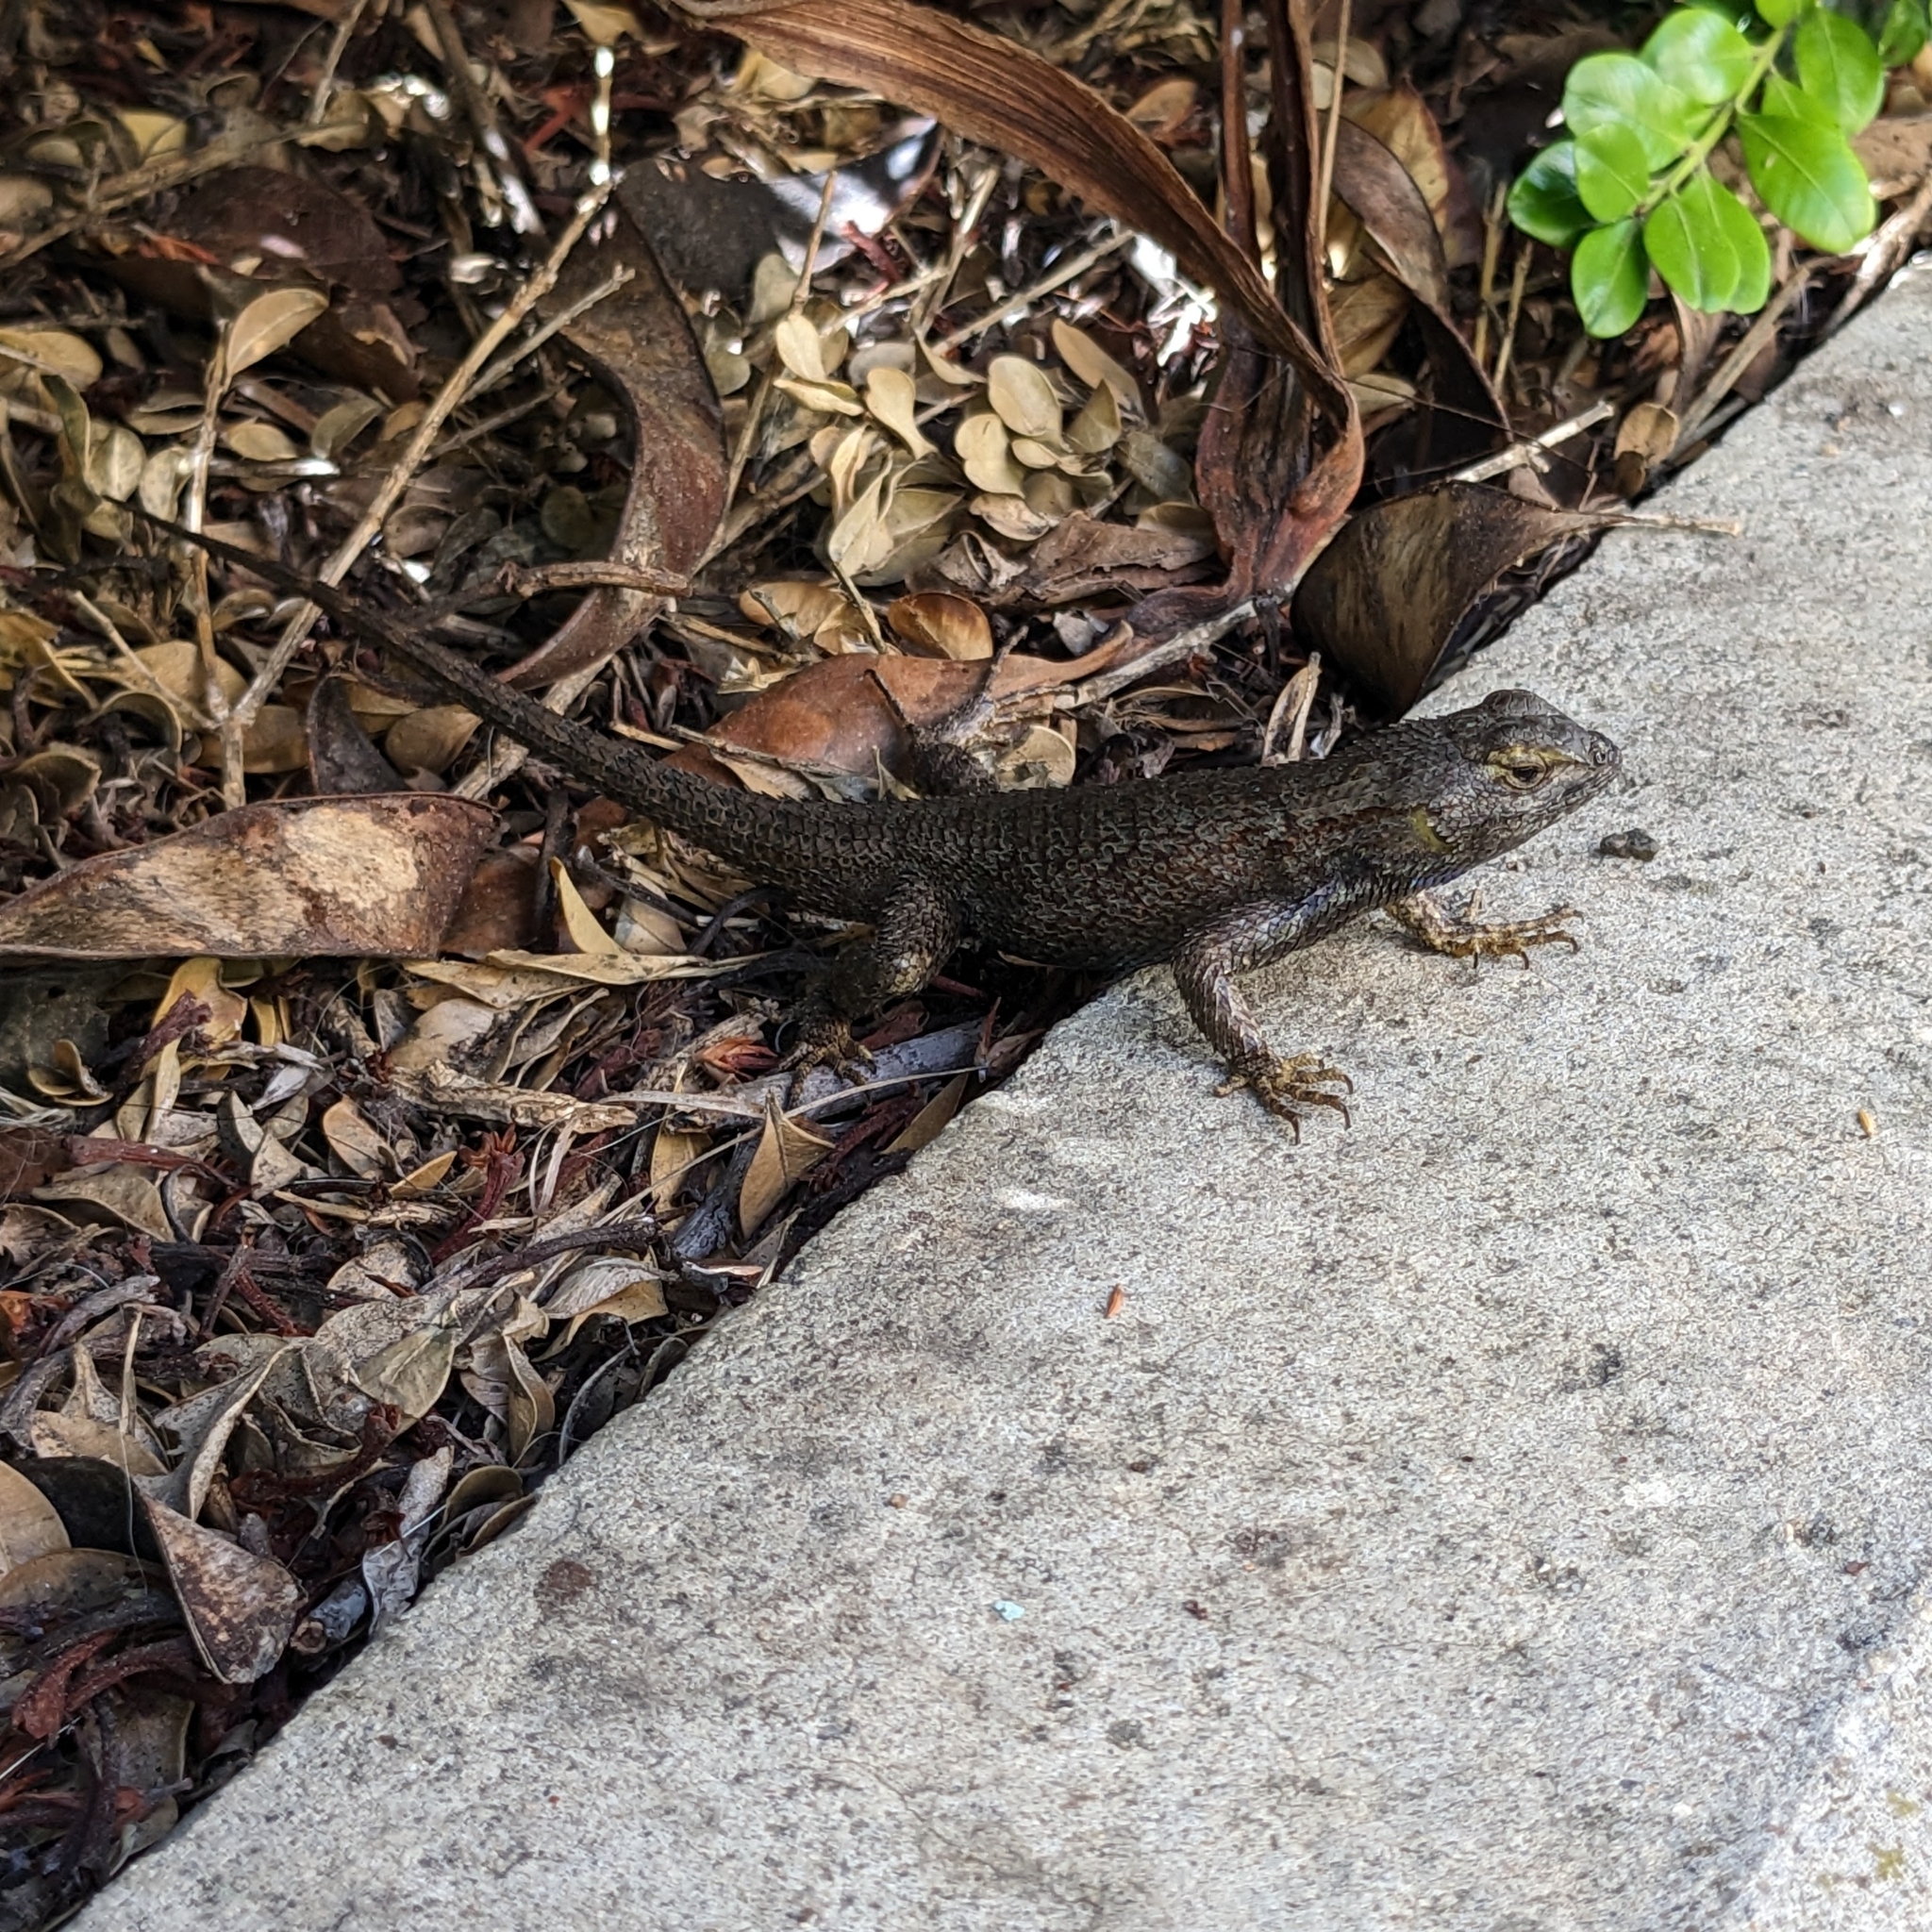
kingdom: Animalia
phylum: Chordata
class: Squamata
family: Phrynosomatidae
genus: Sceloporus
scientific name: Sceloporus occidentalis
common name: Western fence lizard
